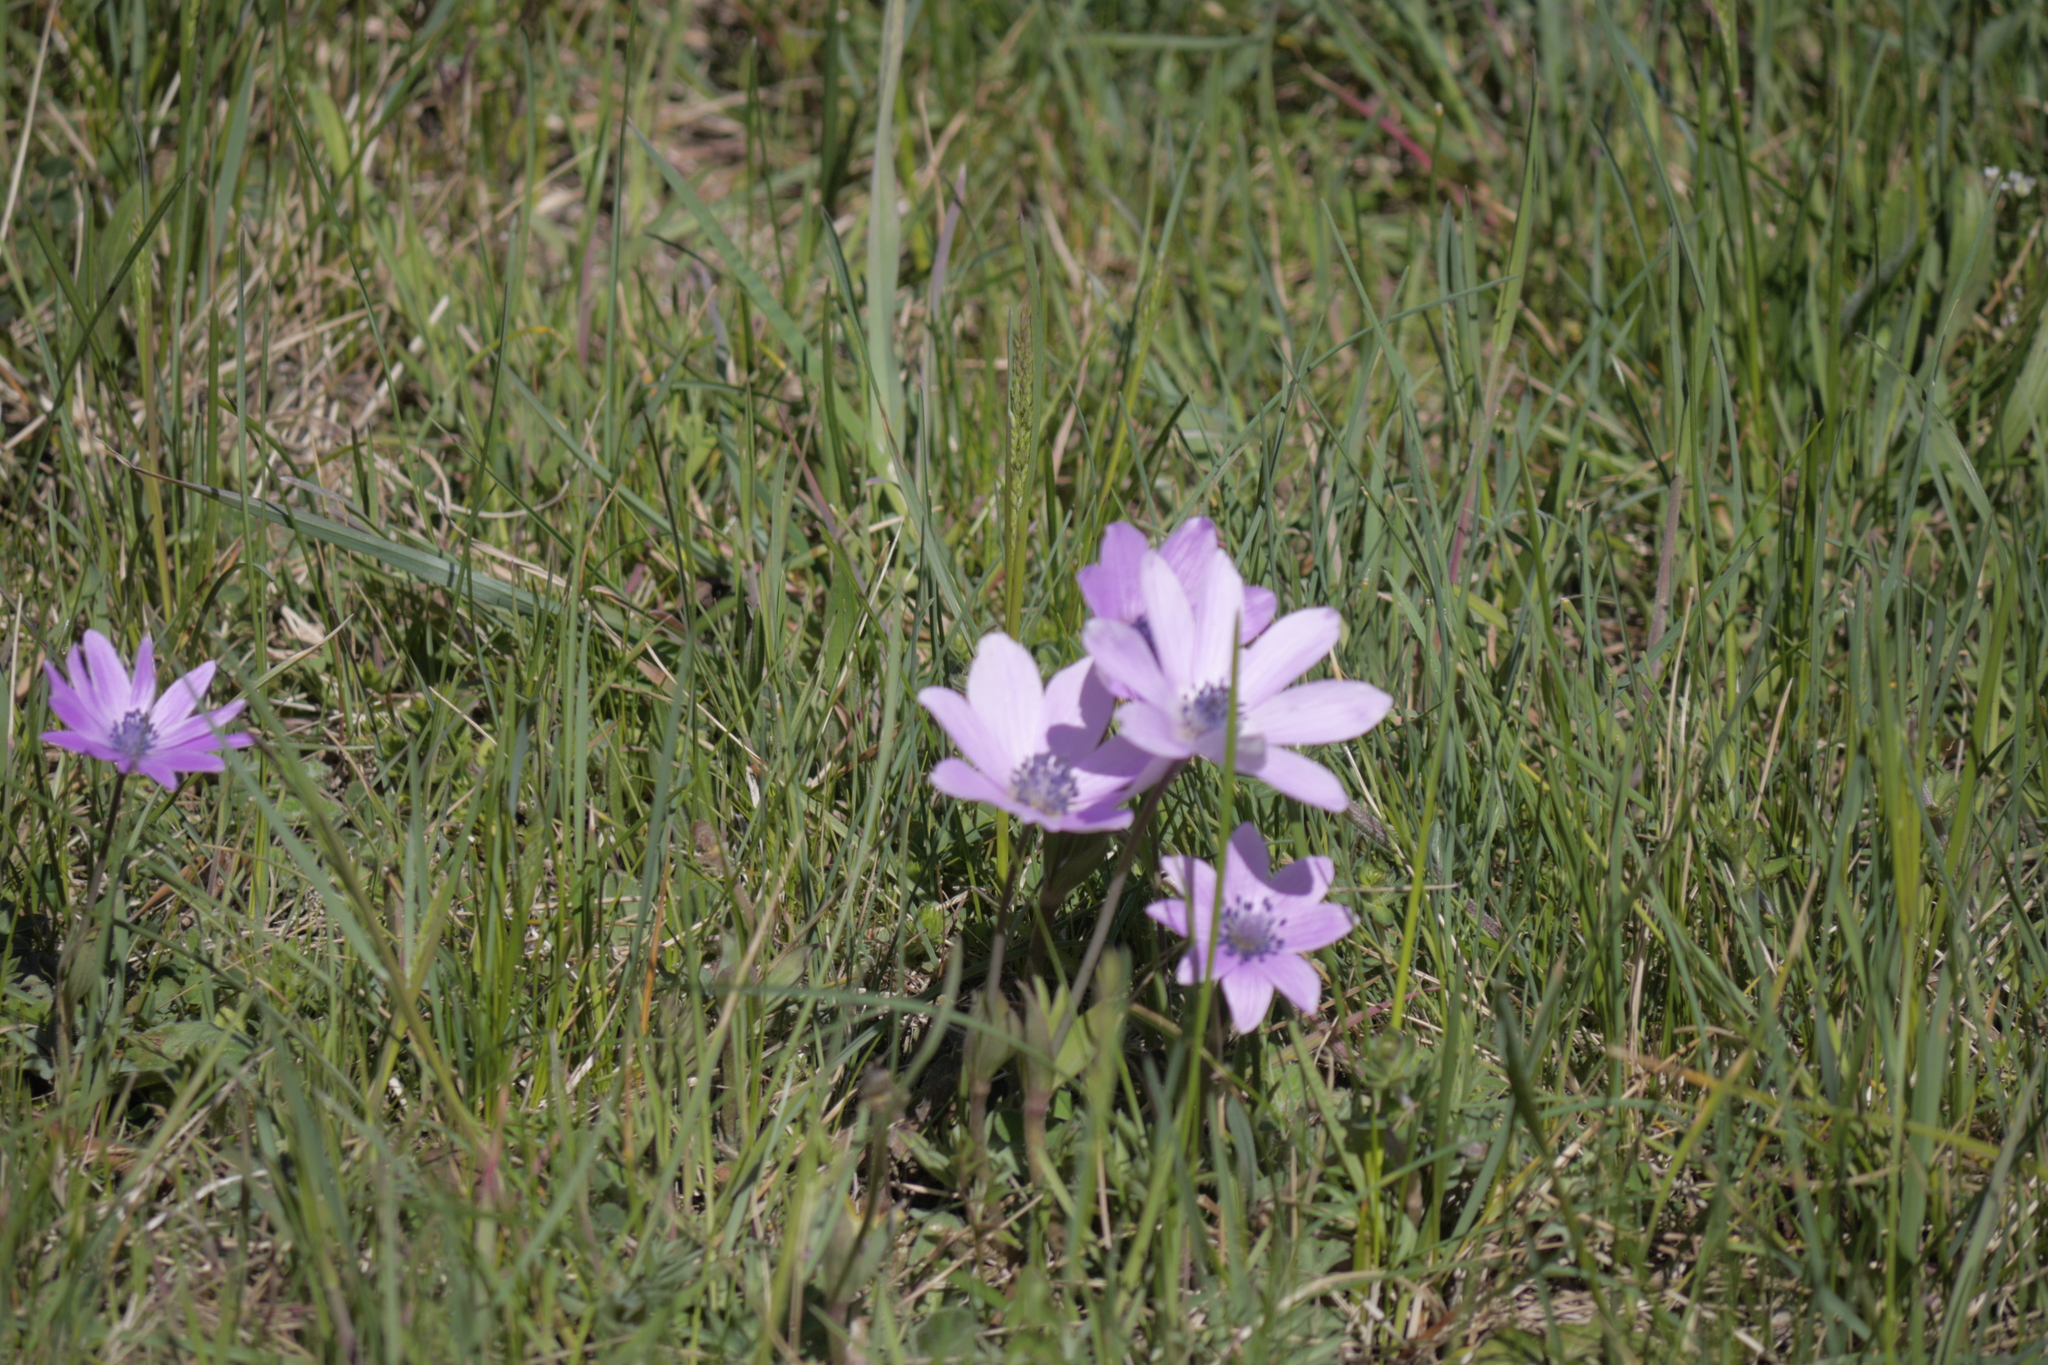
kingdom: Plantae
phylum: Tracheophyta
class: Magnoliopsida
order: Ranunculales
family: Ranunculaceae
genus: Anemone
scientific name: Anemone hortensis
